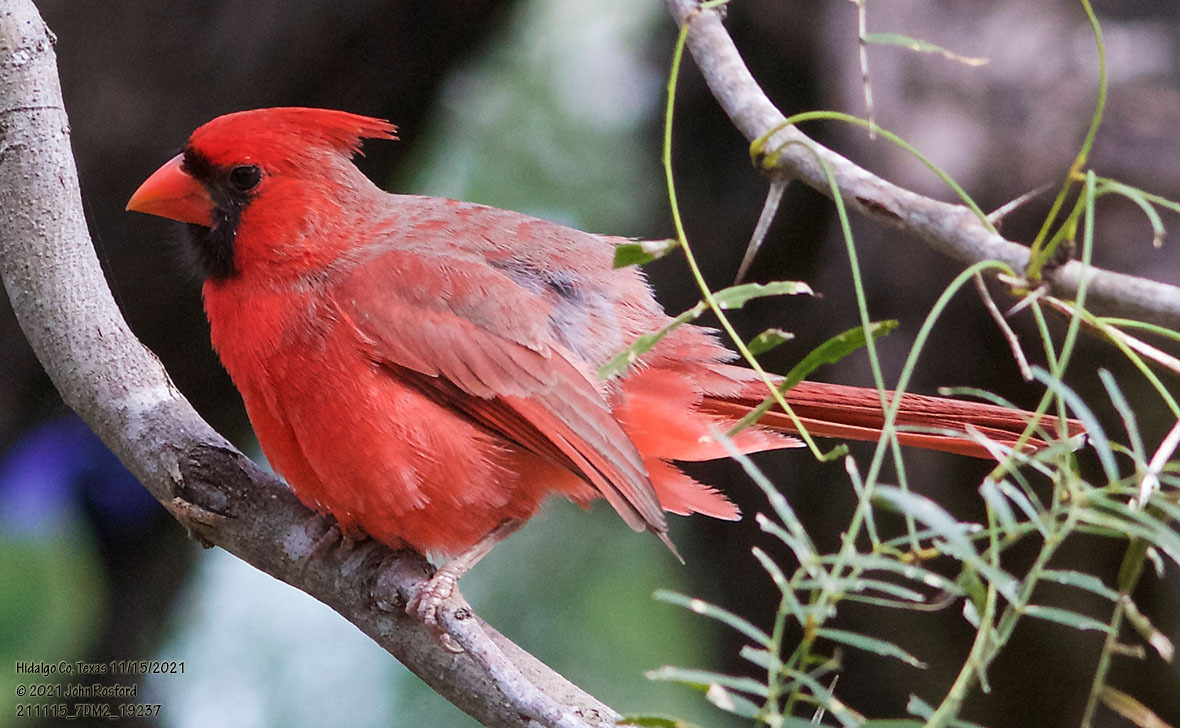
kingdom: Animalia
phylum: Chordata
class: Aves
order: Passeriformes
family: Cardinalidae
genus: Cardinalis
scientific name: Cardinalis cardinalis
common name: Northern cardinal
